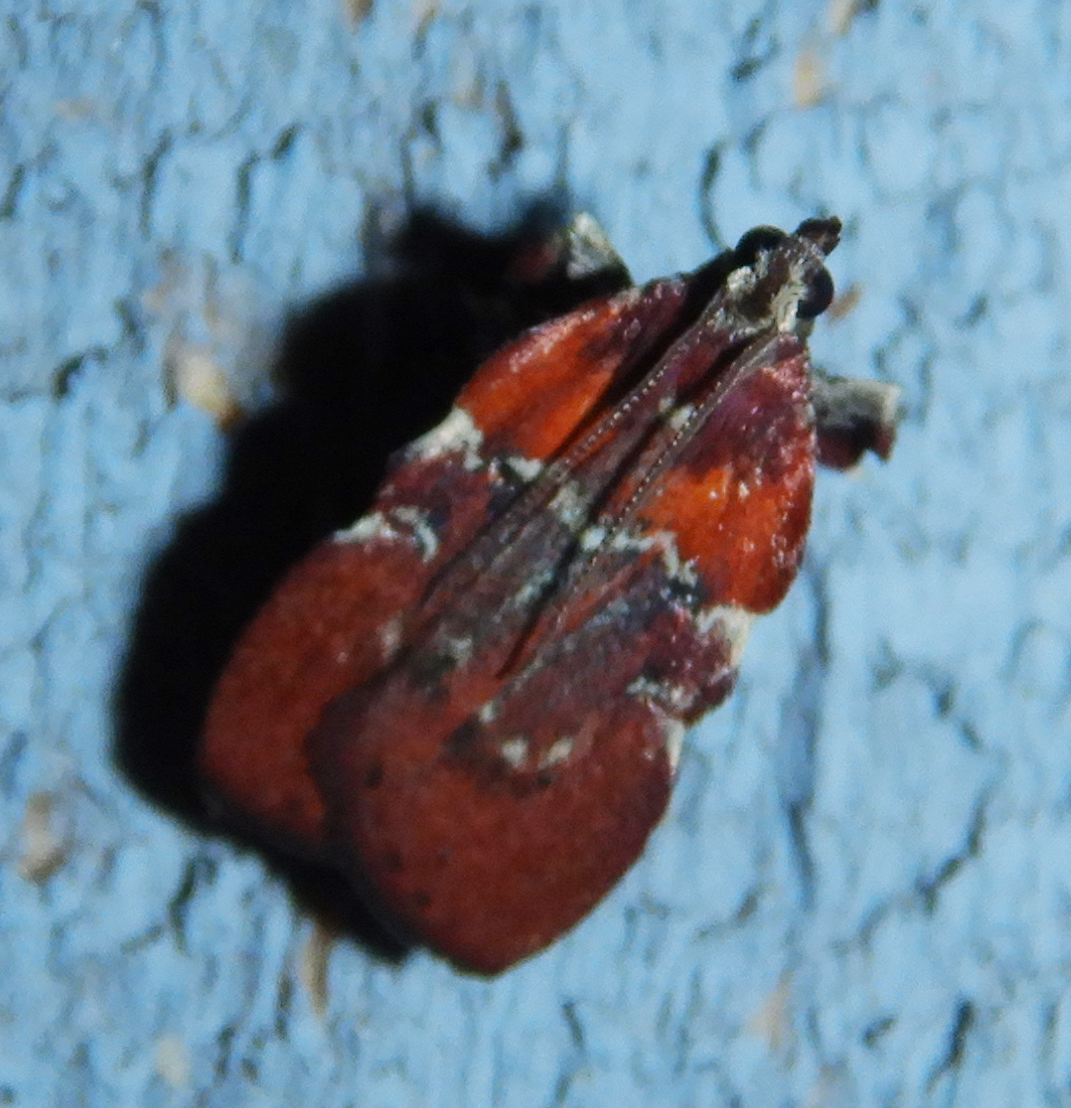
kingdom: Animalia
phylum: Arthropoda
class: Insecta
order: Lepidoptera
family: Pyralidae
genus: Galasa
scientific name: Galasa nigrinodis
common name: Boxwood leaftier moth
